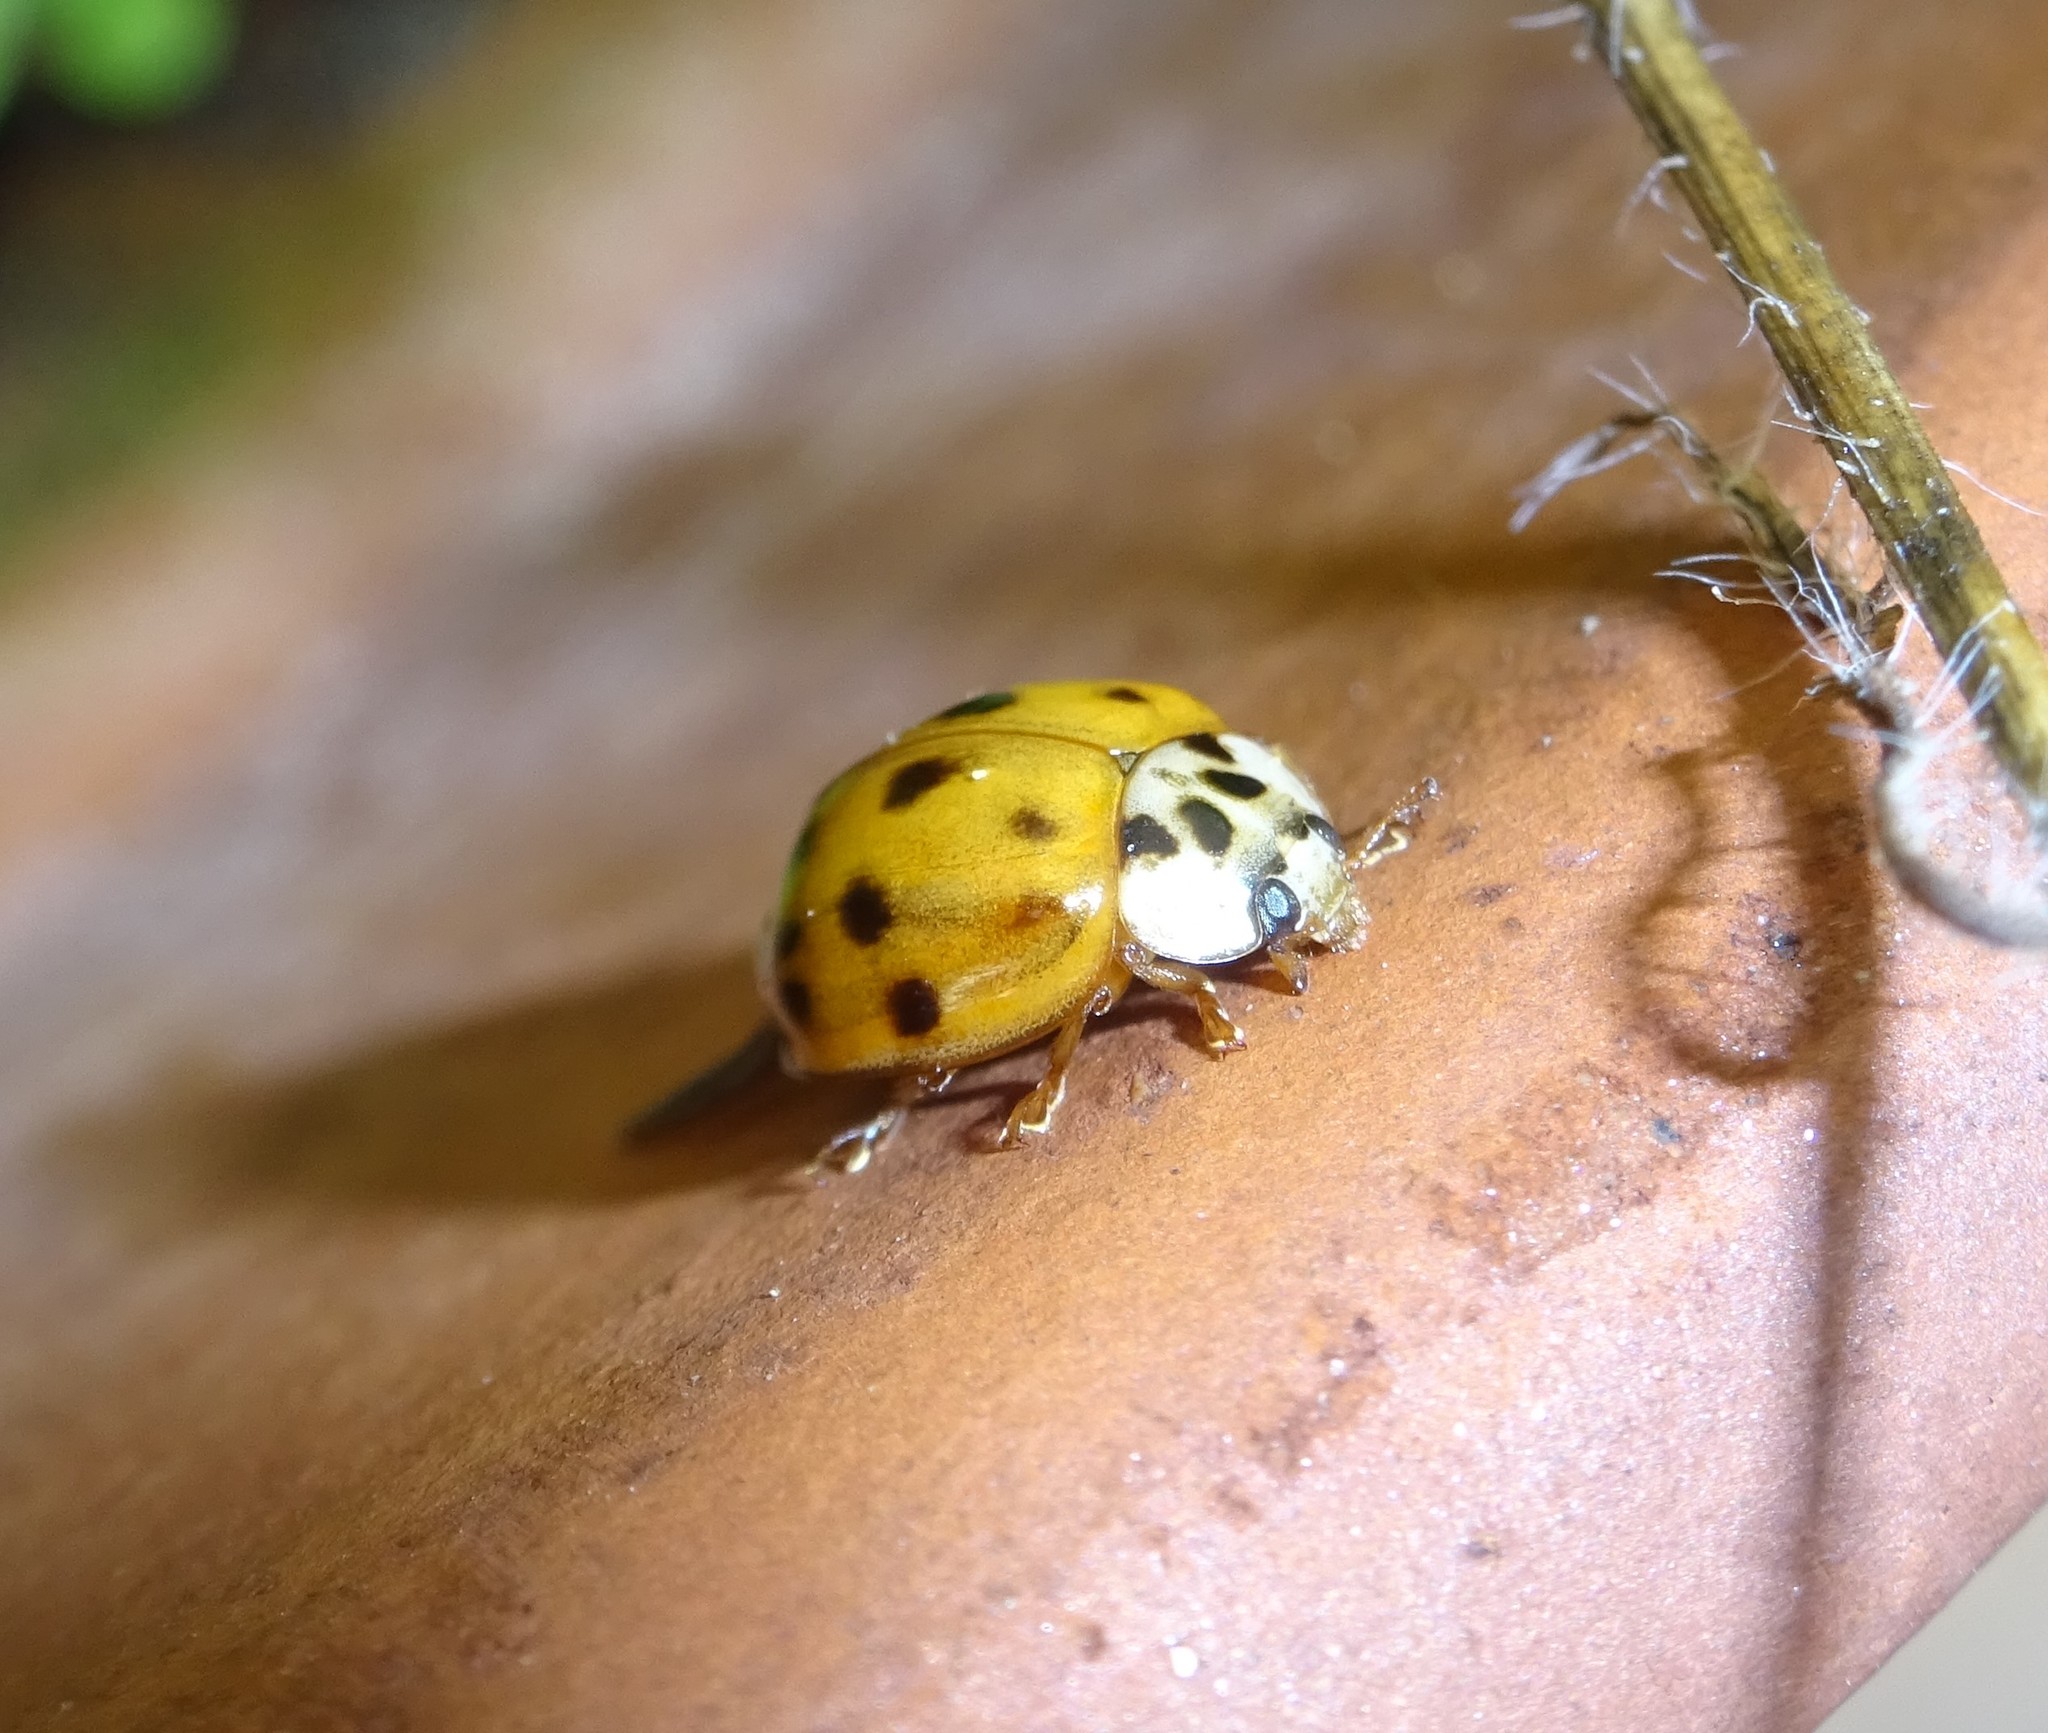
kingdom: Animalia
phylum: Arthropoda
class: Insecta
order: Coleoptera
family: Coccinellidae
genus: Harmonia
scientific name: Harmonia axyridis
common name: Harlequin ladybird
